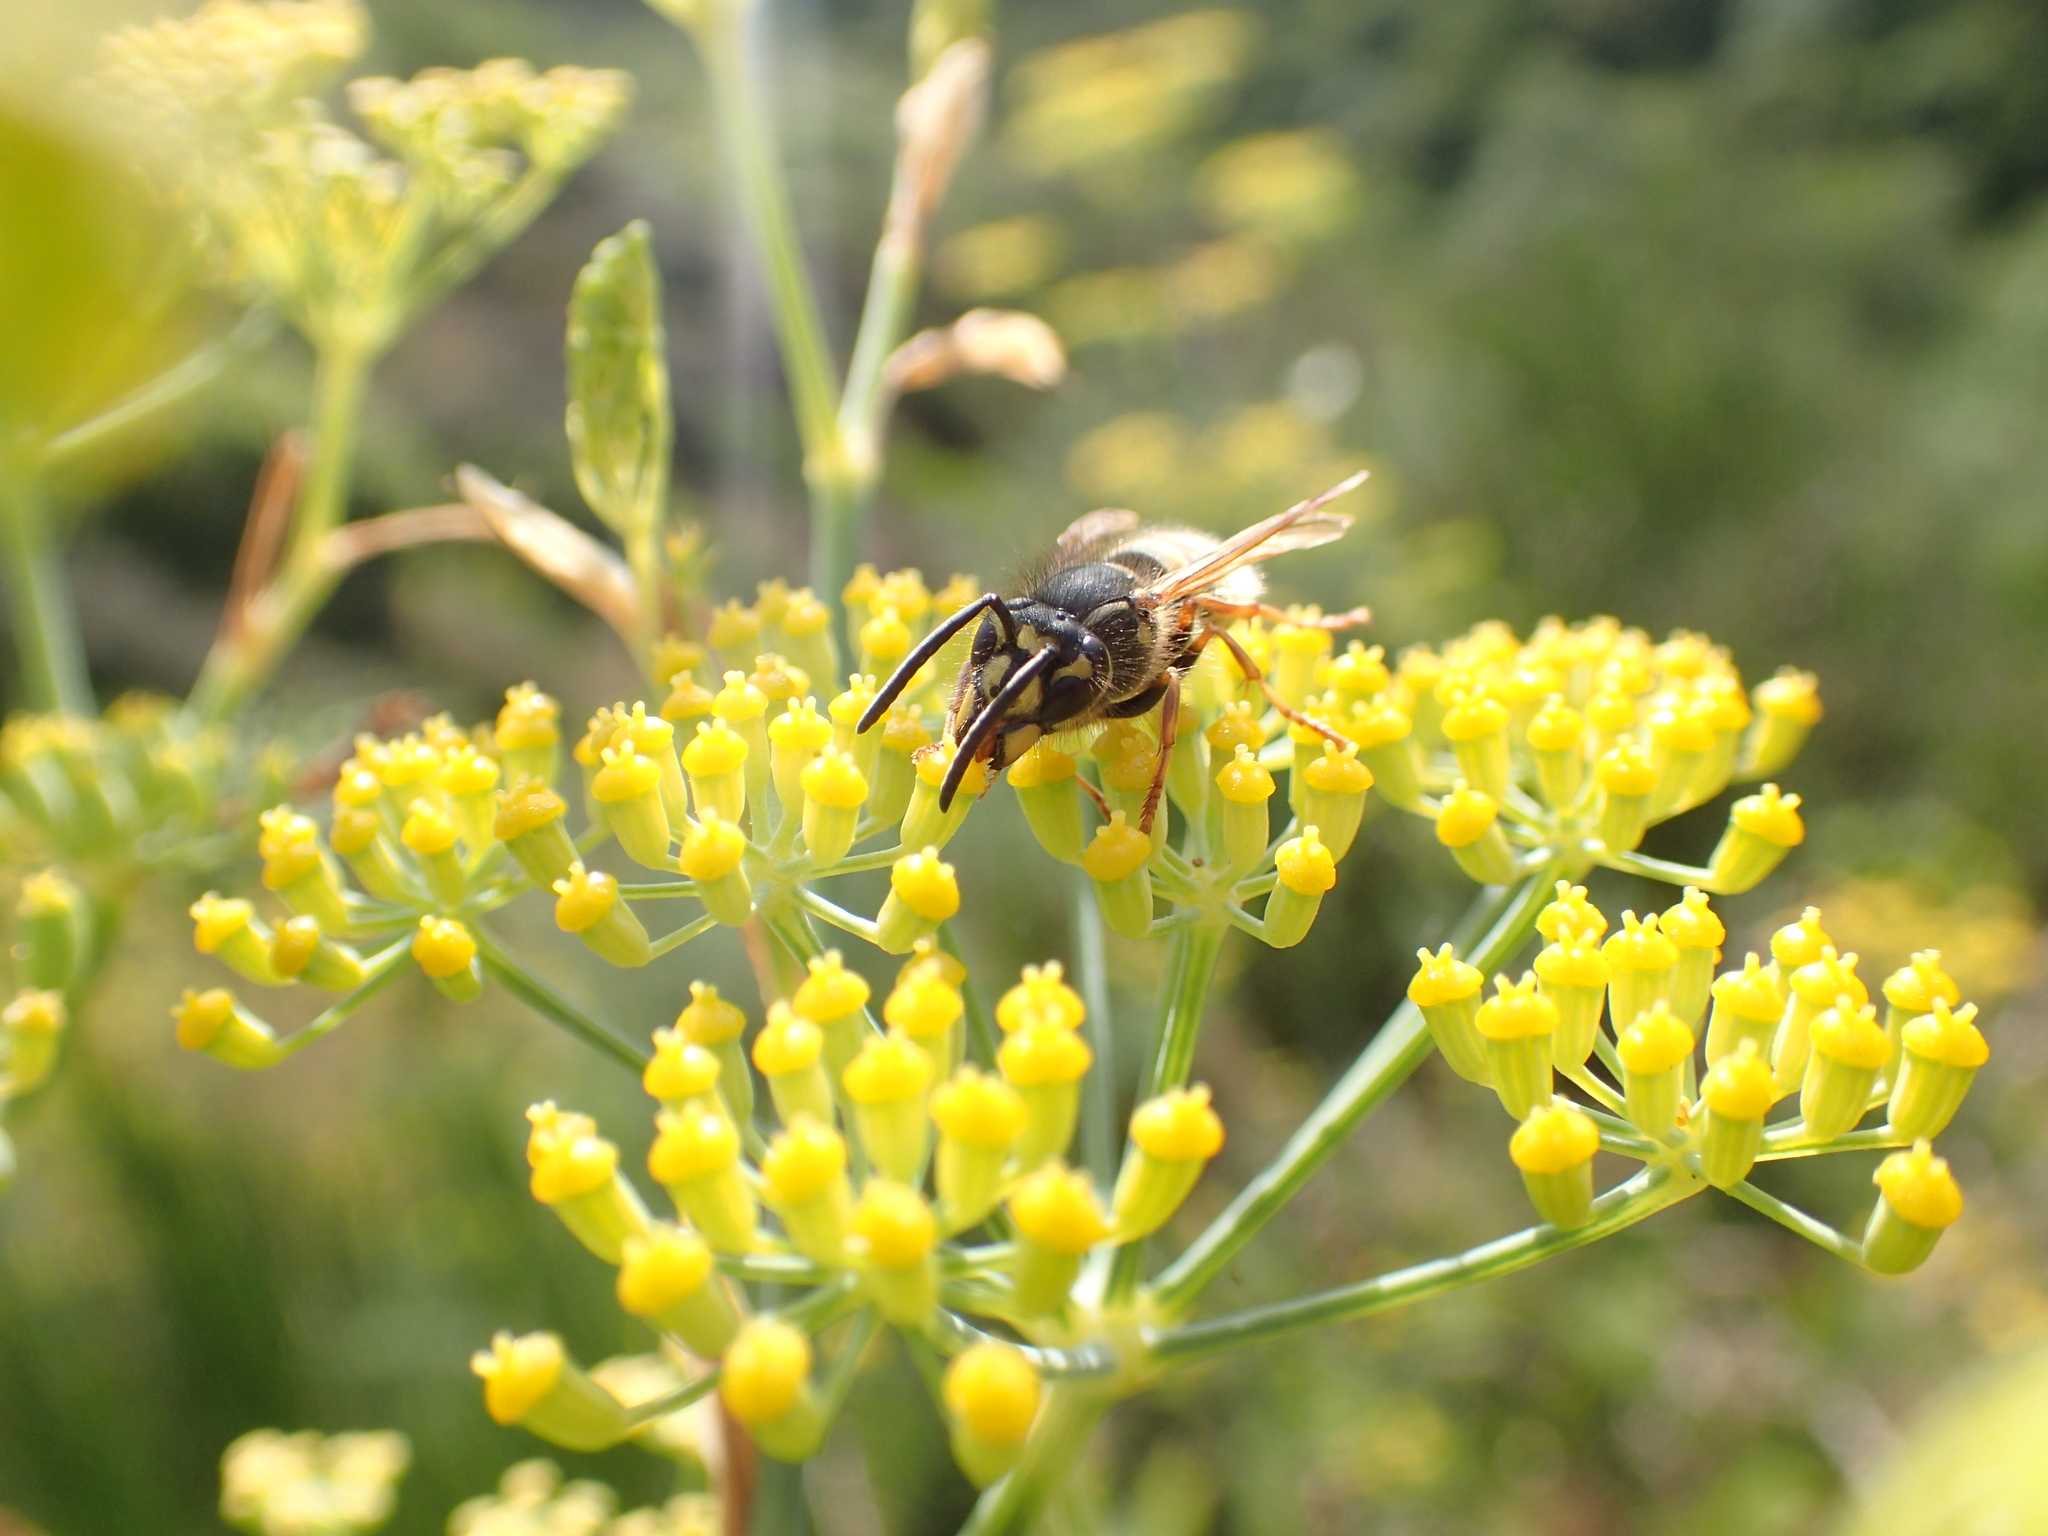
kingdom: Animalia
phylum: Arthropoda
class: Insecta
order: Hymenoptera
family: Vespidae
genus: Vespula
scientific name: Vespula vulgaris
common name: Common wasp
